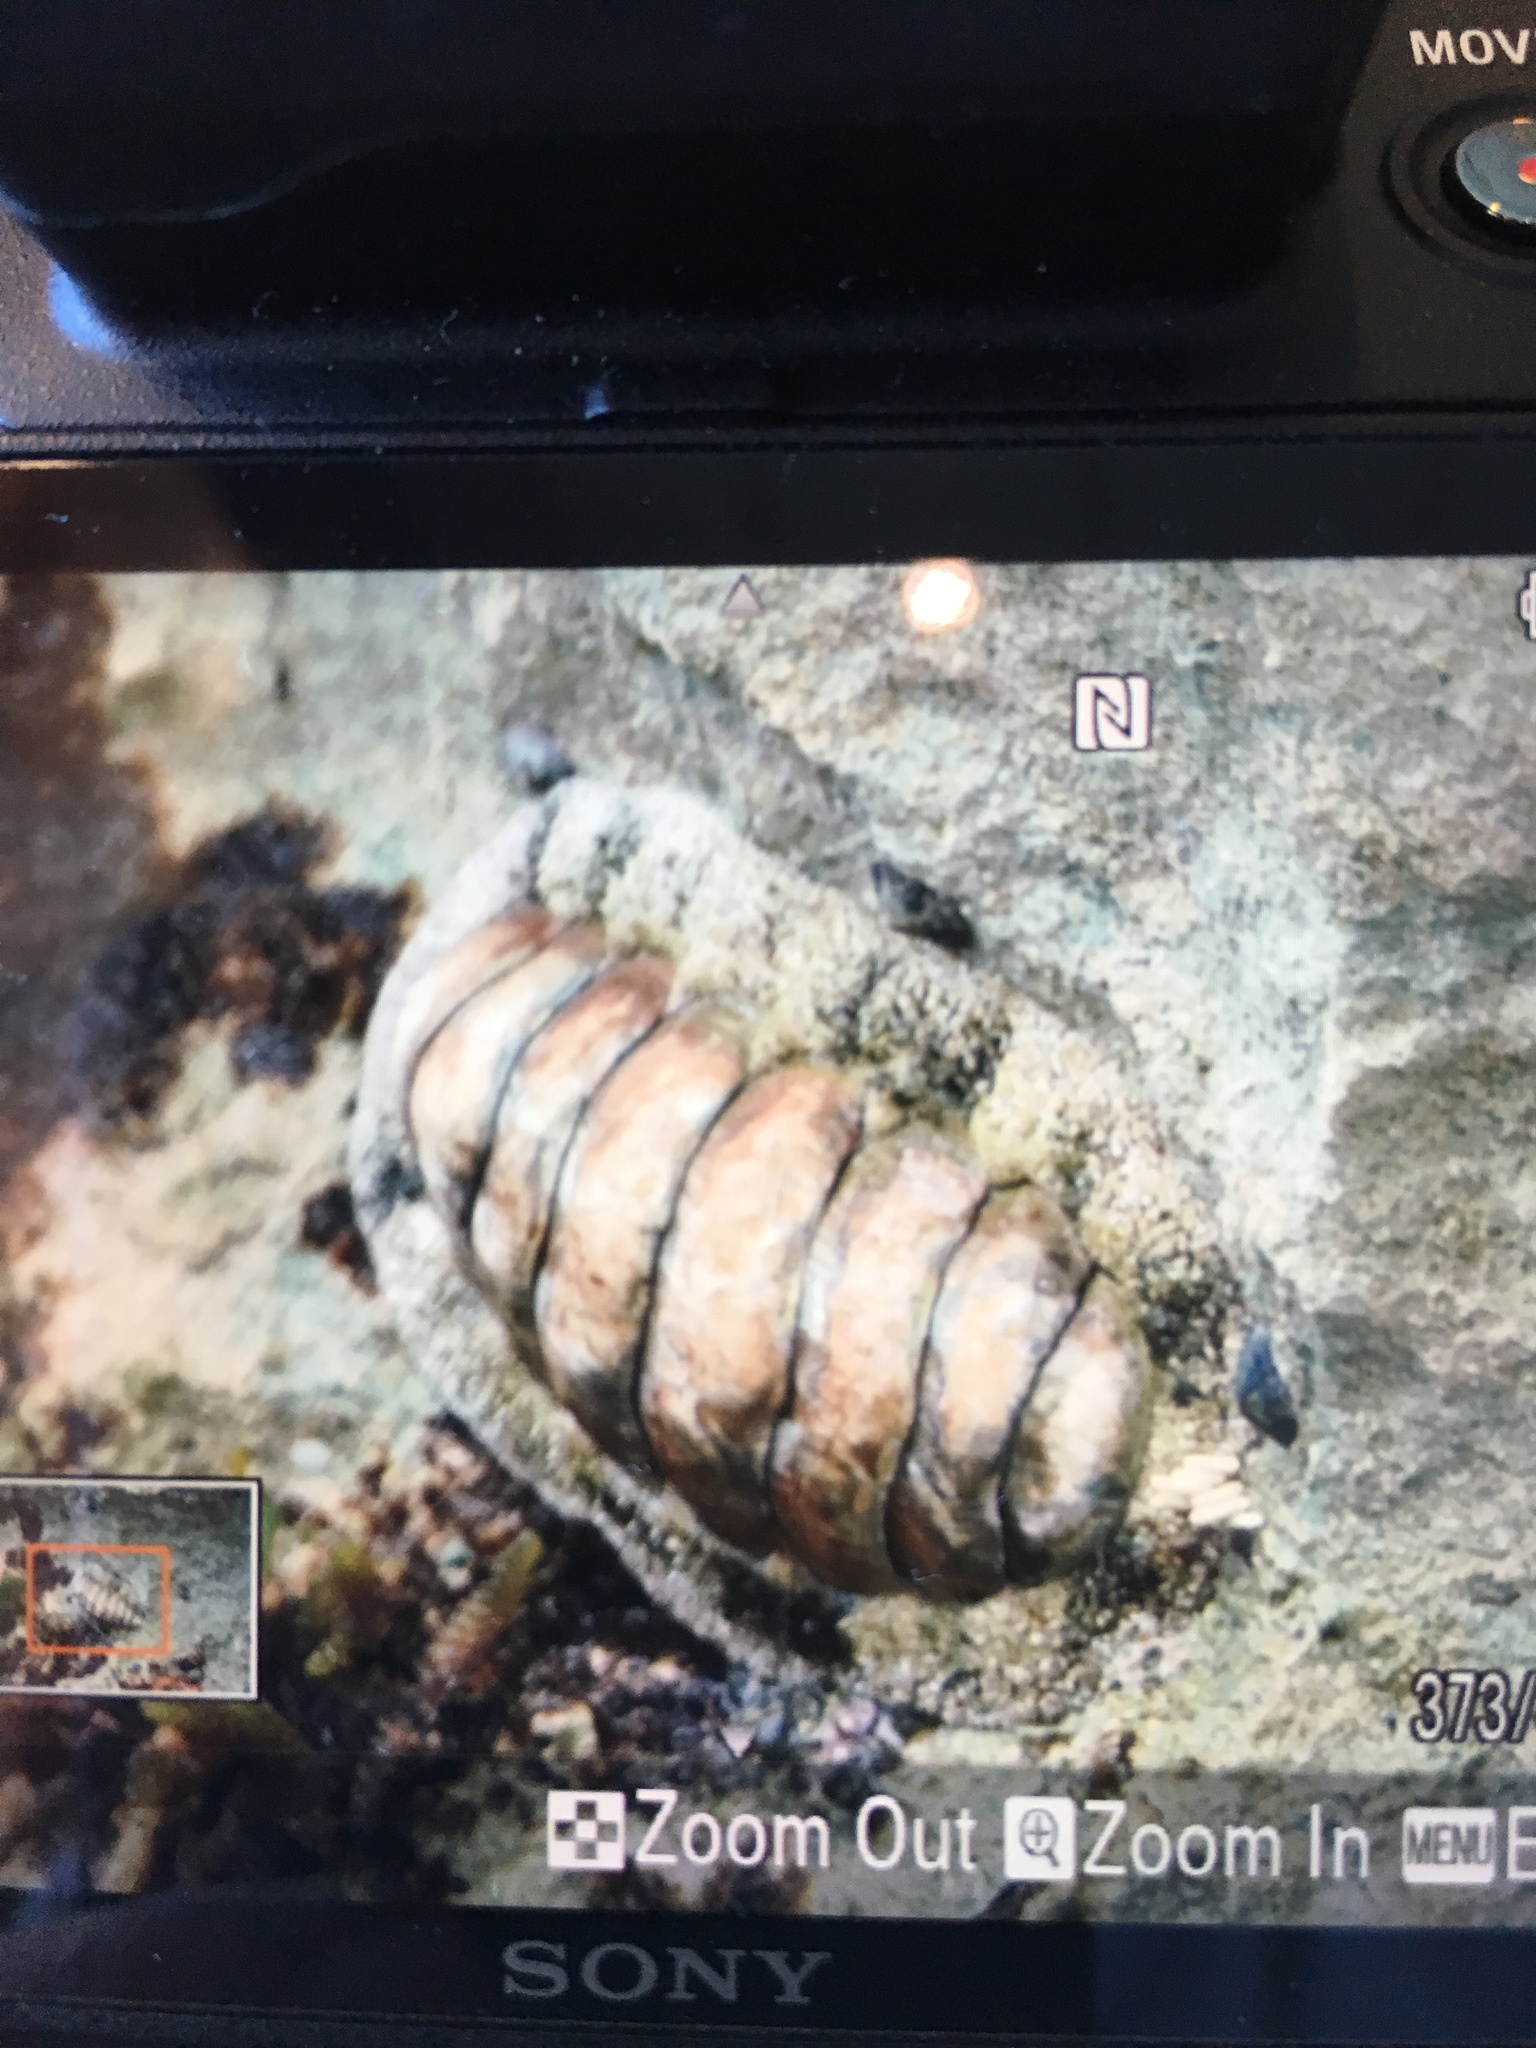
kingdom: Animalia
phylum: Mollusca
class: Polyplacophora
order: Chitonida
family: Chitonidae
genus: Acanthopleura
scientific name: Acanthopleura granulata
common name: West indian fuzzy chiton
